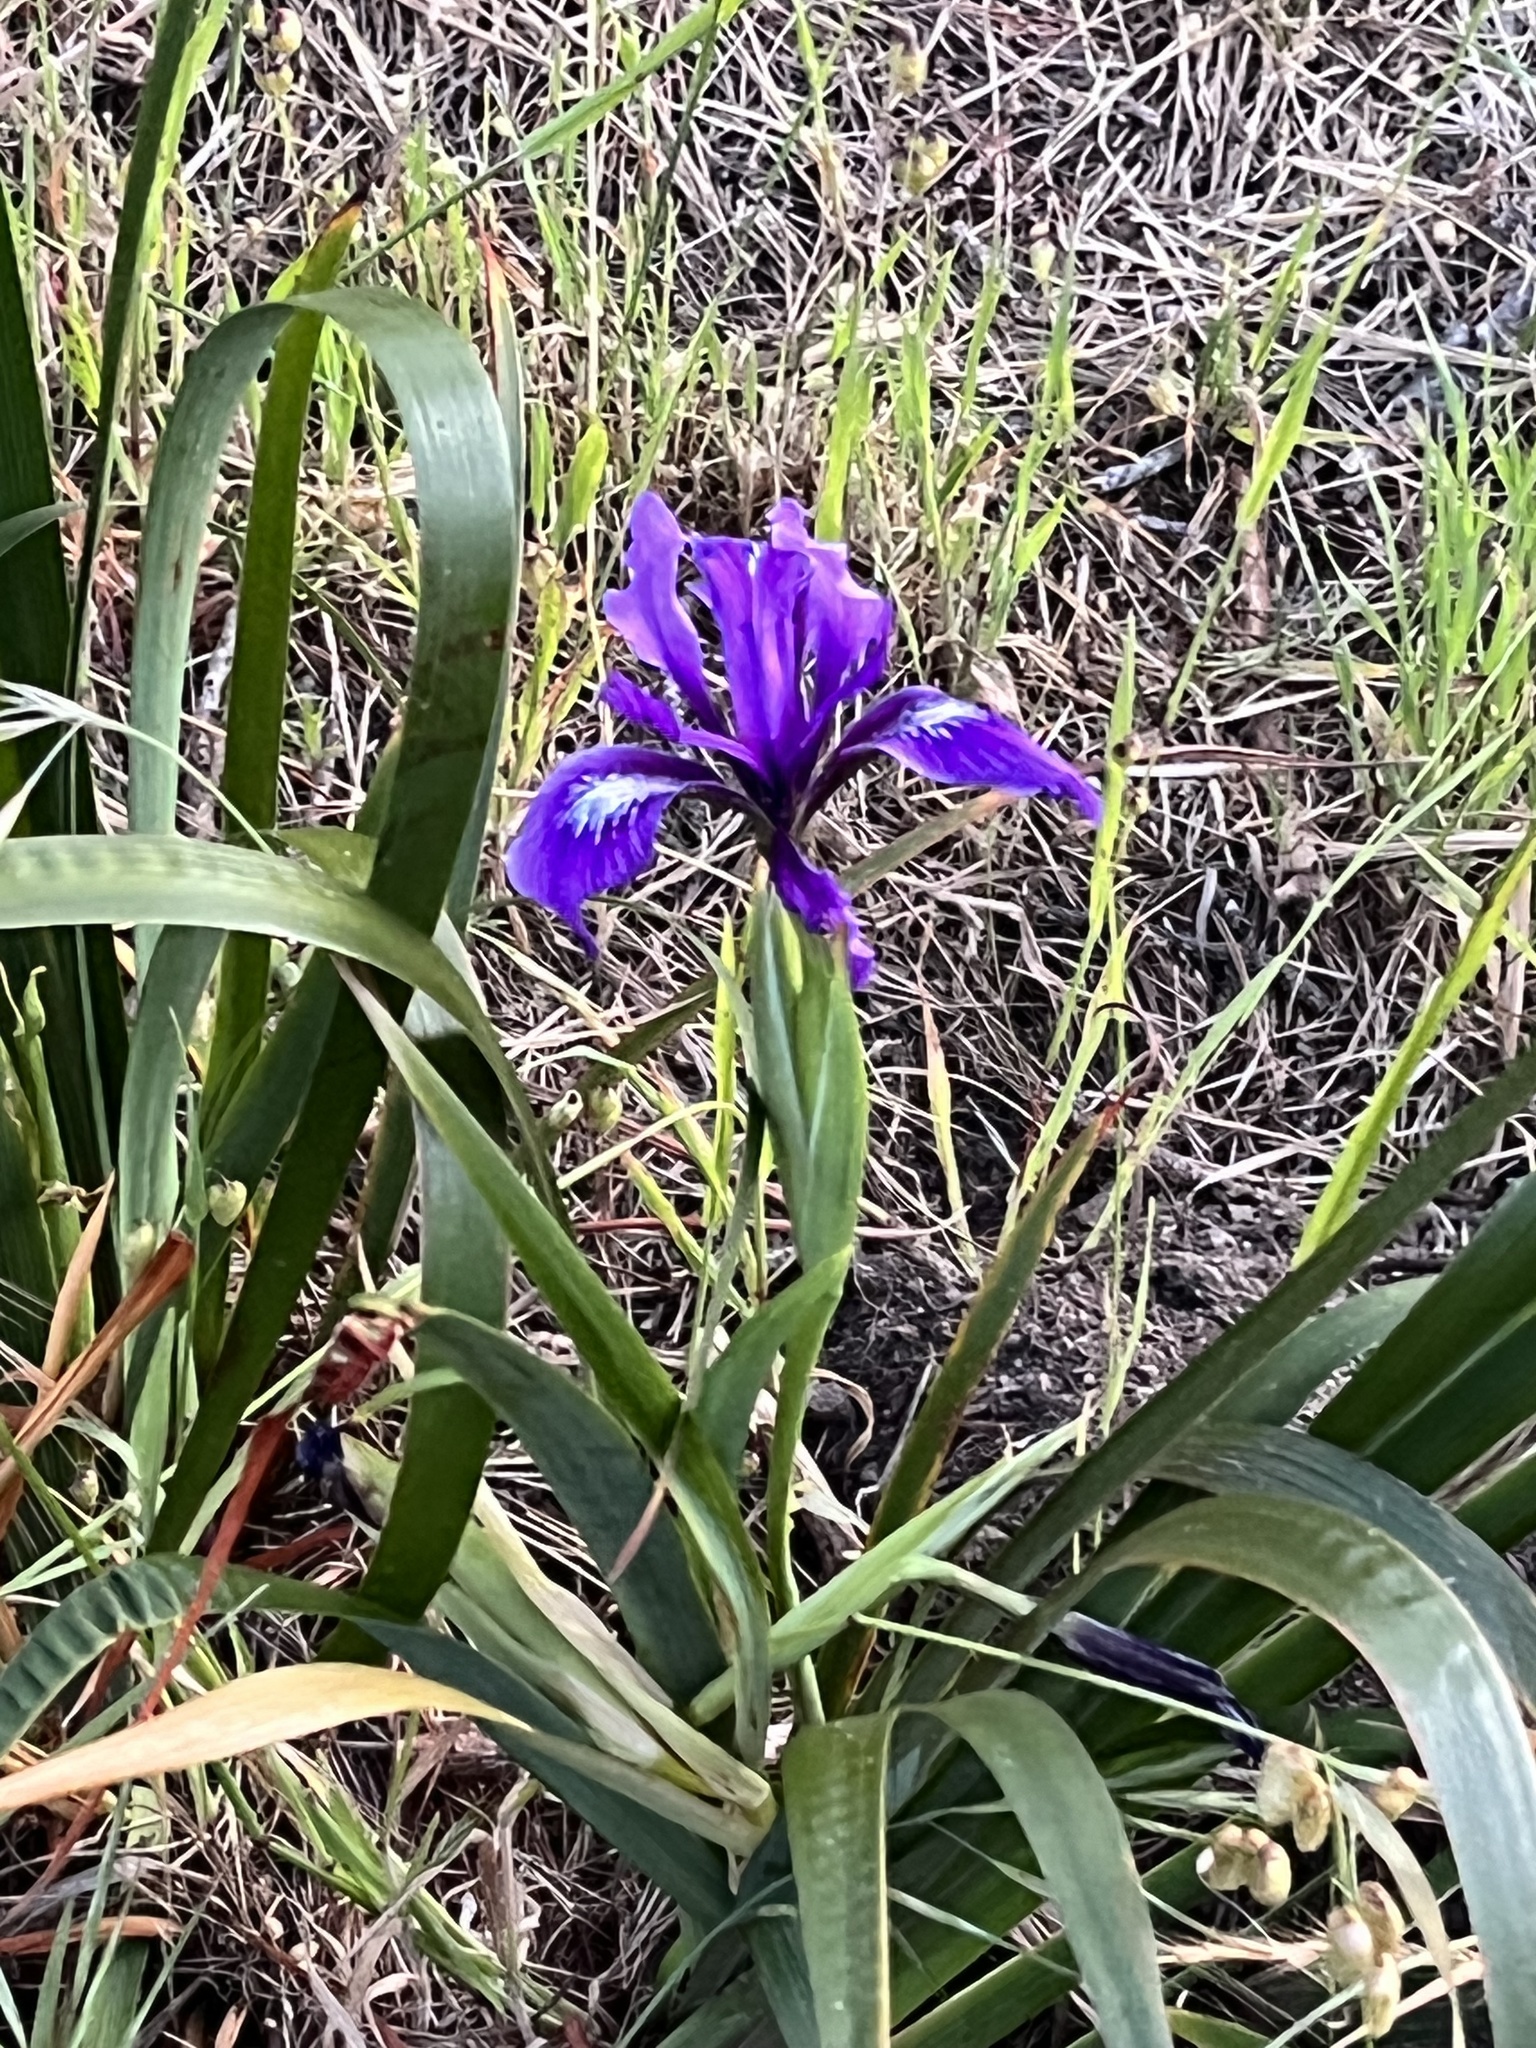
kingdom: Plantae
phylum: Tracheophyta
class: Liliopsida
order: Asparagales
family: Iridaceae
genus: Iris
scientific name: Iris douglasiana
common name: Marin iris
